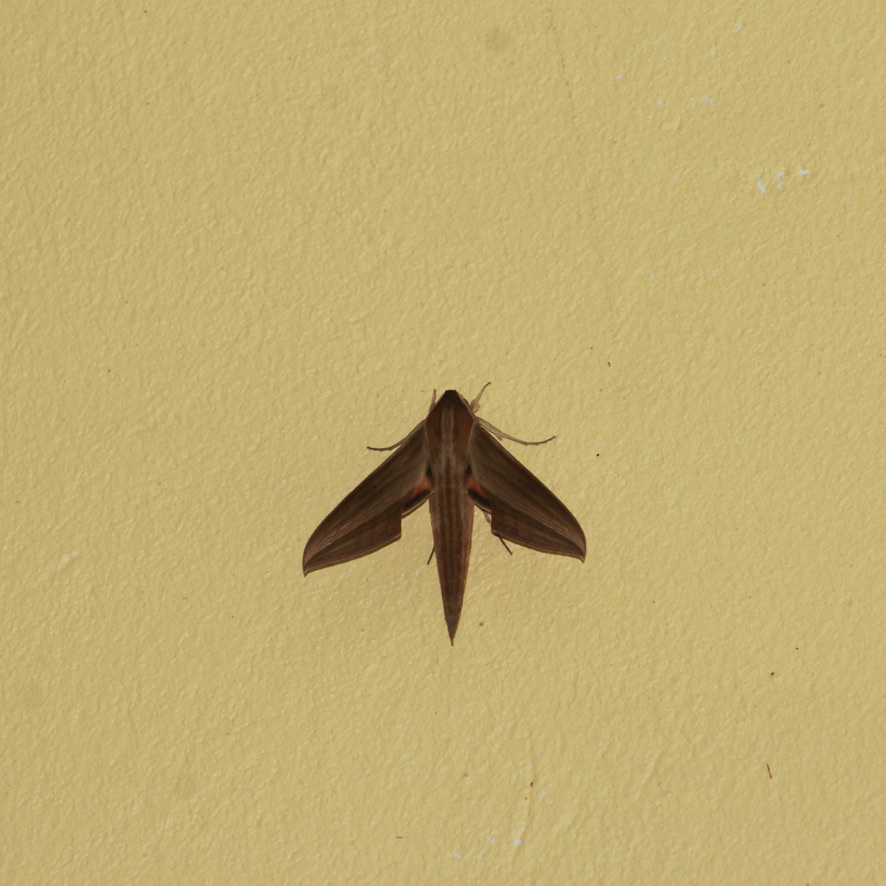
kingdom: Animalia
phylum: Arthropoda
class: Insecta
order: Lepidoptera
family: Sphingidae
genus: Xylophanes
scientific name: Xylophanes neoptolemus
